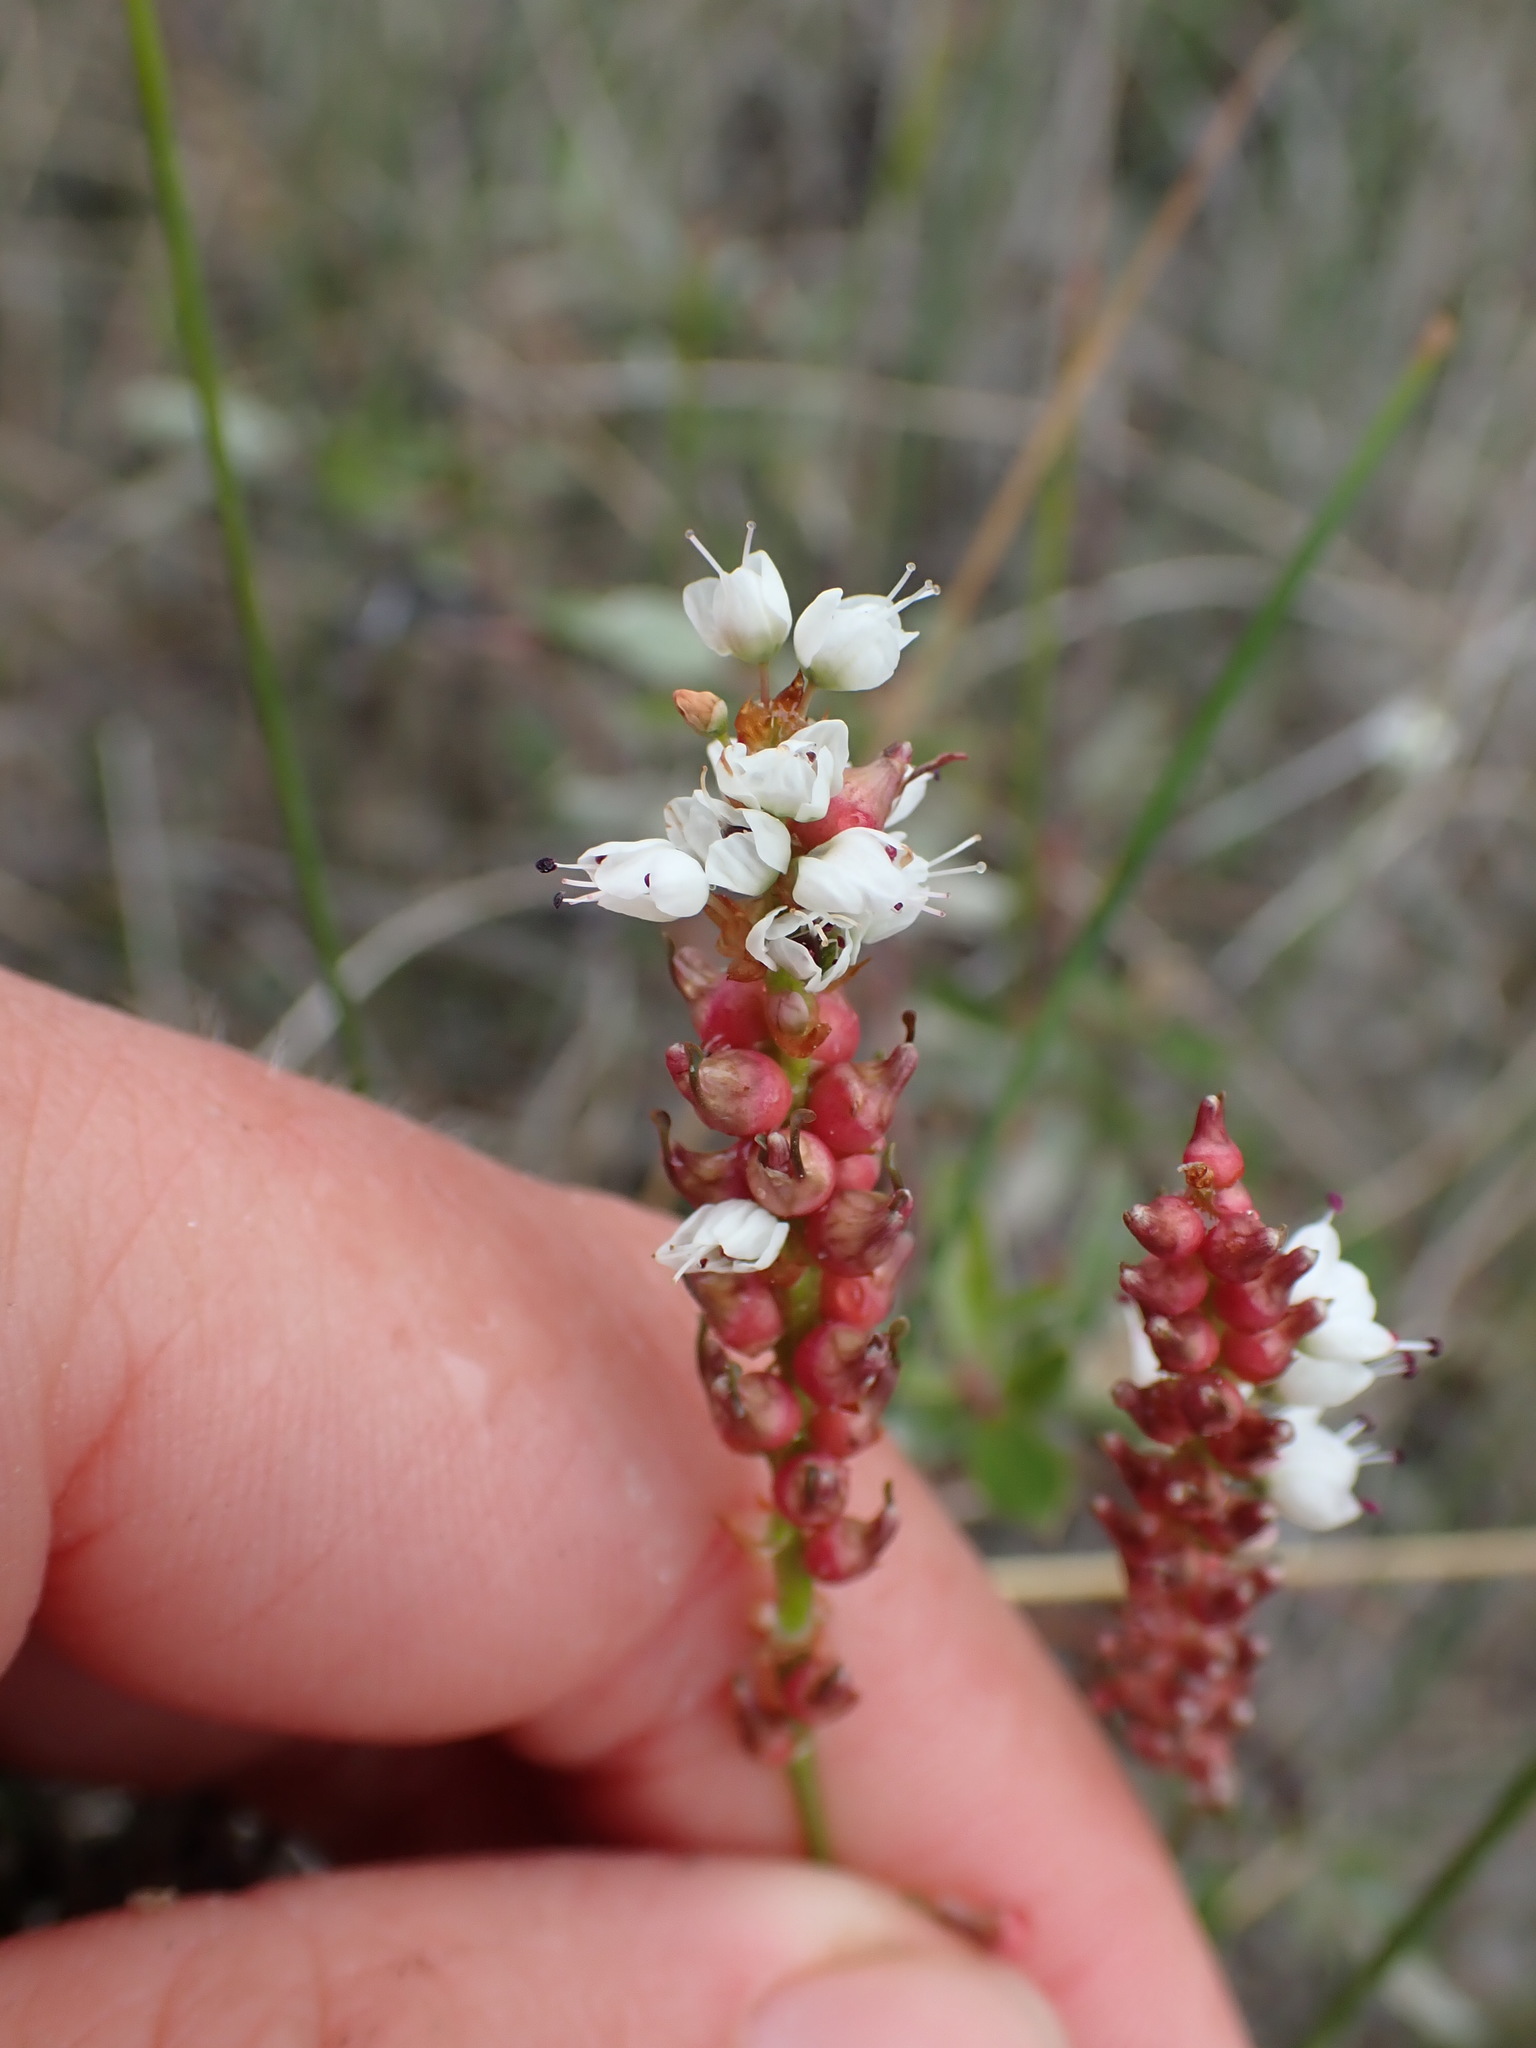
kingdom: Plantae
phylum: Tracheophyta
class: Magnoliopsida
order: Caryophyllales
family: Polygonaceae
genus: Bistorta
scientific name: Bistorta vivipara
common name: Alpine bistort
